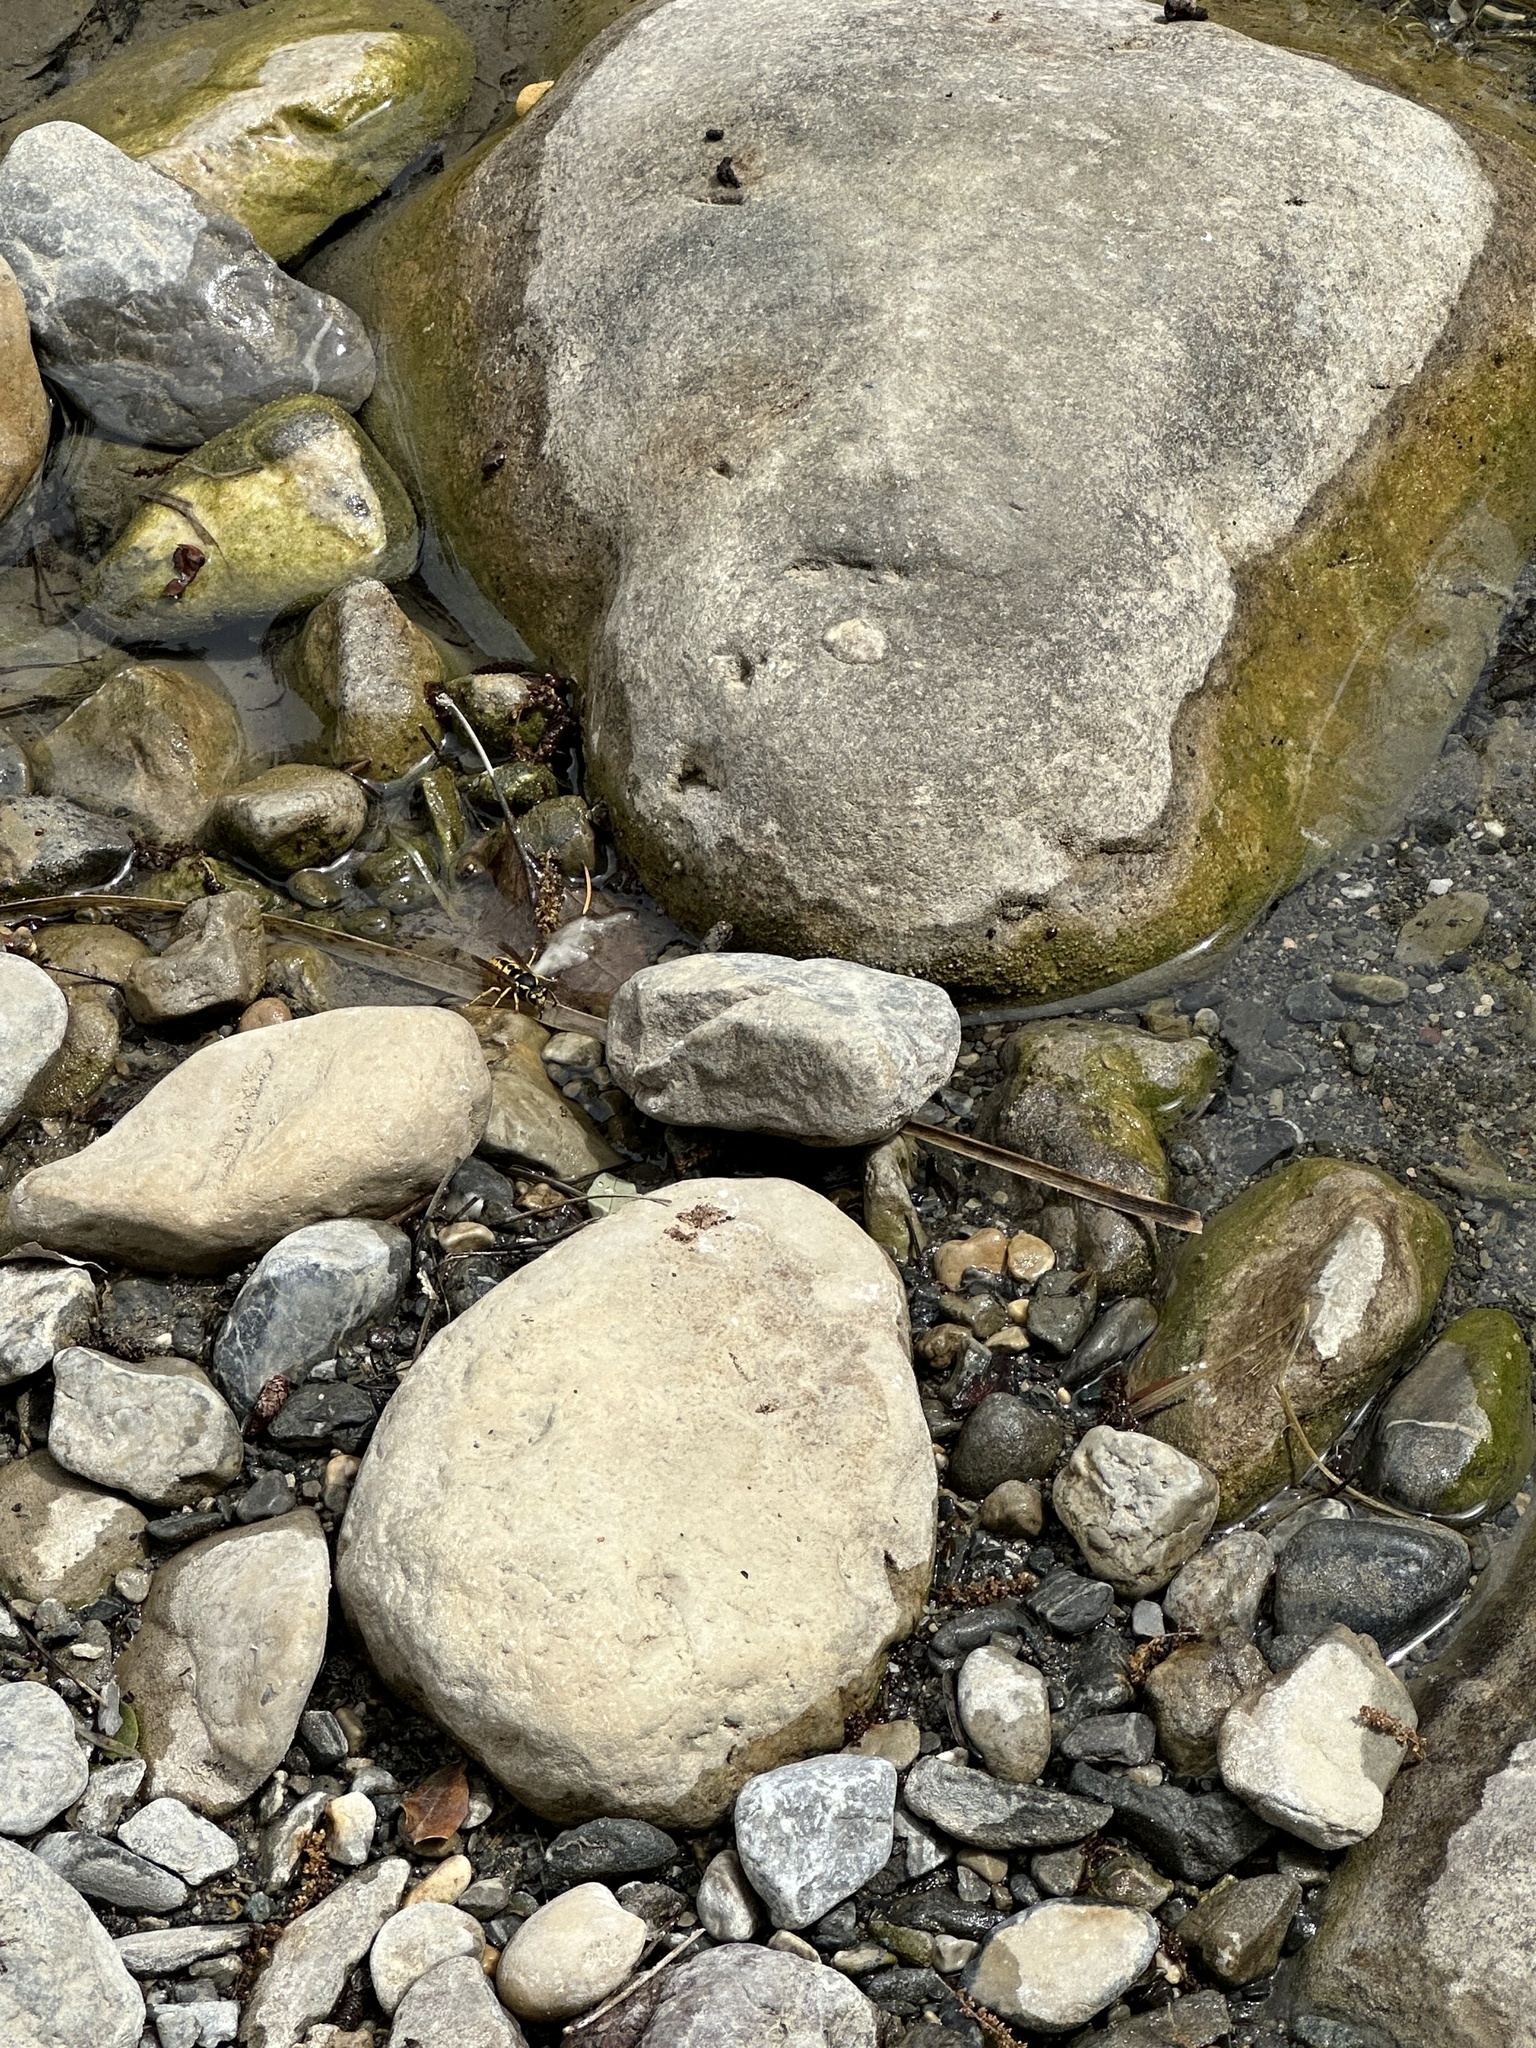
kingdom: Animalia
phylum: Arthropoda
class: Arachnida
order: Araneae
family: Salticidae
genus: Philaeus
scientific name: Philaeus chrysops
